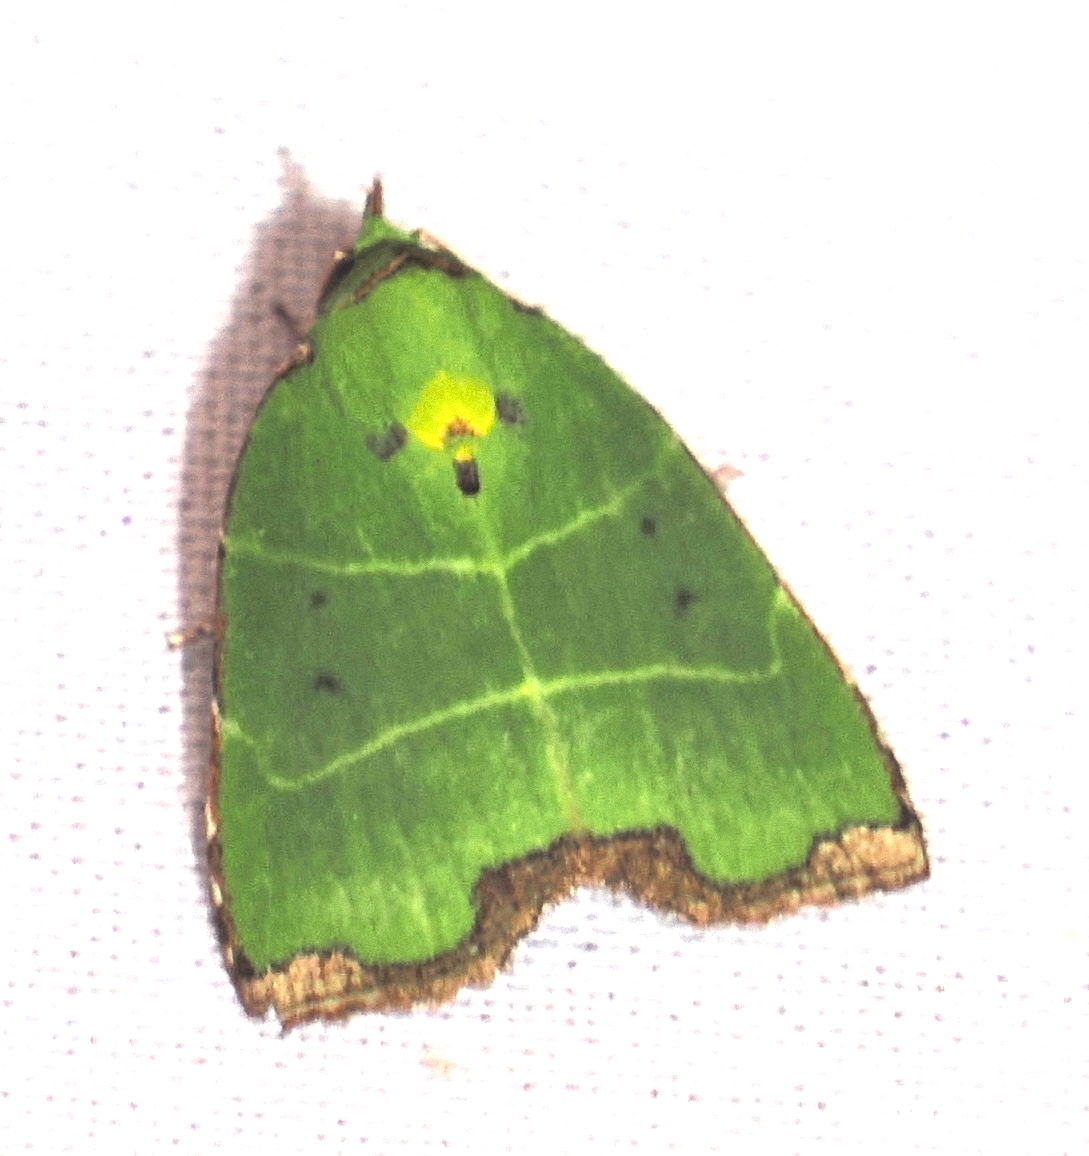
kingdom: Animalia
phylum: Arthropoda
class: Insecta
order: Lepidoptera
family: Nolidae
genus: Paracrama
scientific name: Paracrama latimargo
